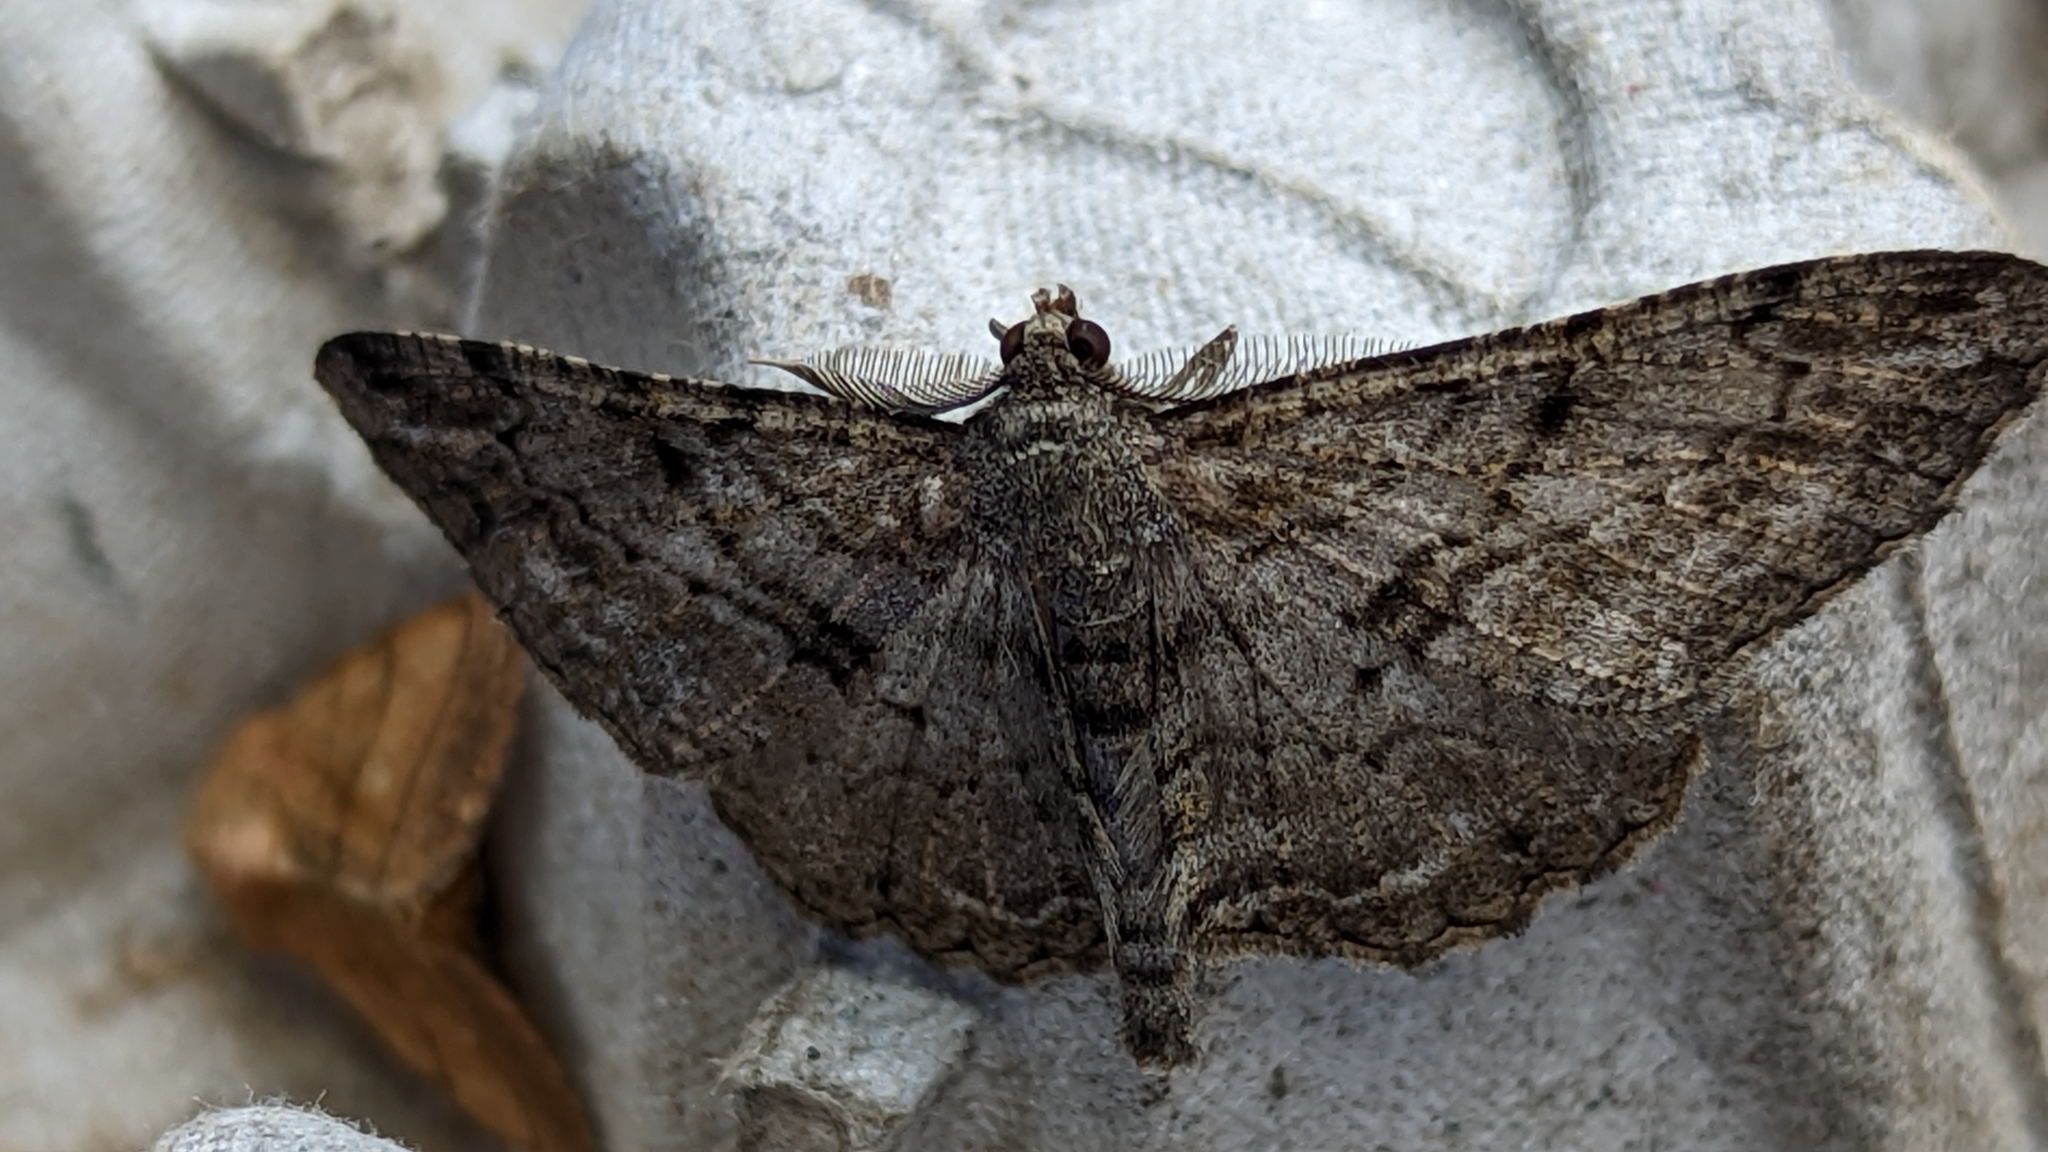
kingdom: Animalia
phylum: Arthropoda
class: Insecta
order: Lepidoptera
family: Geometridae
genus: Peribatodes
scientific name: Peribatodes rhomboidaria
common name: Willow beauty
